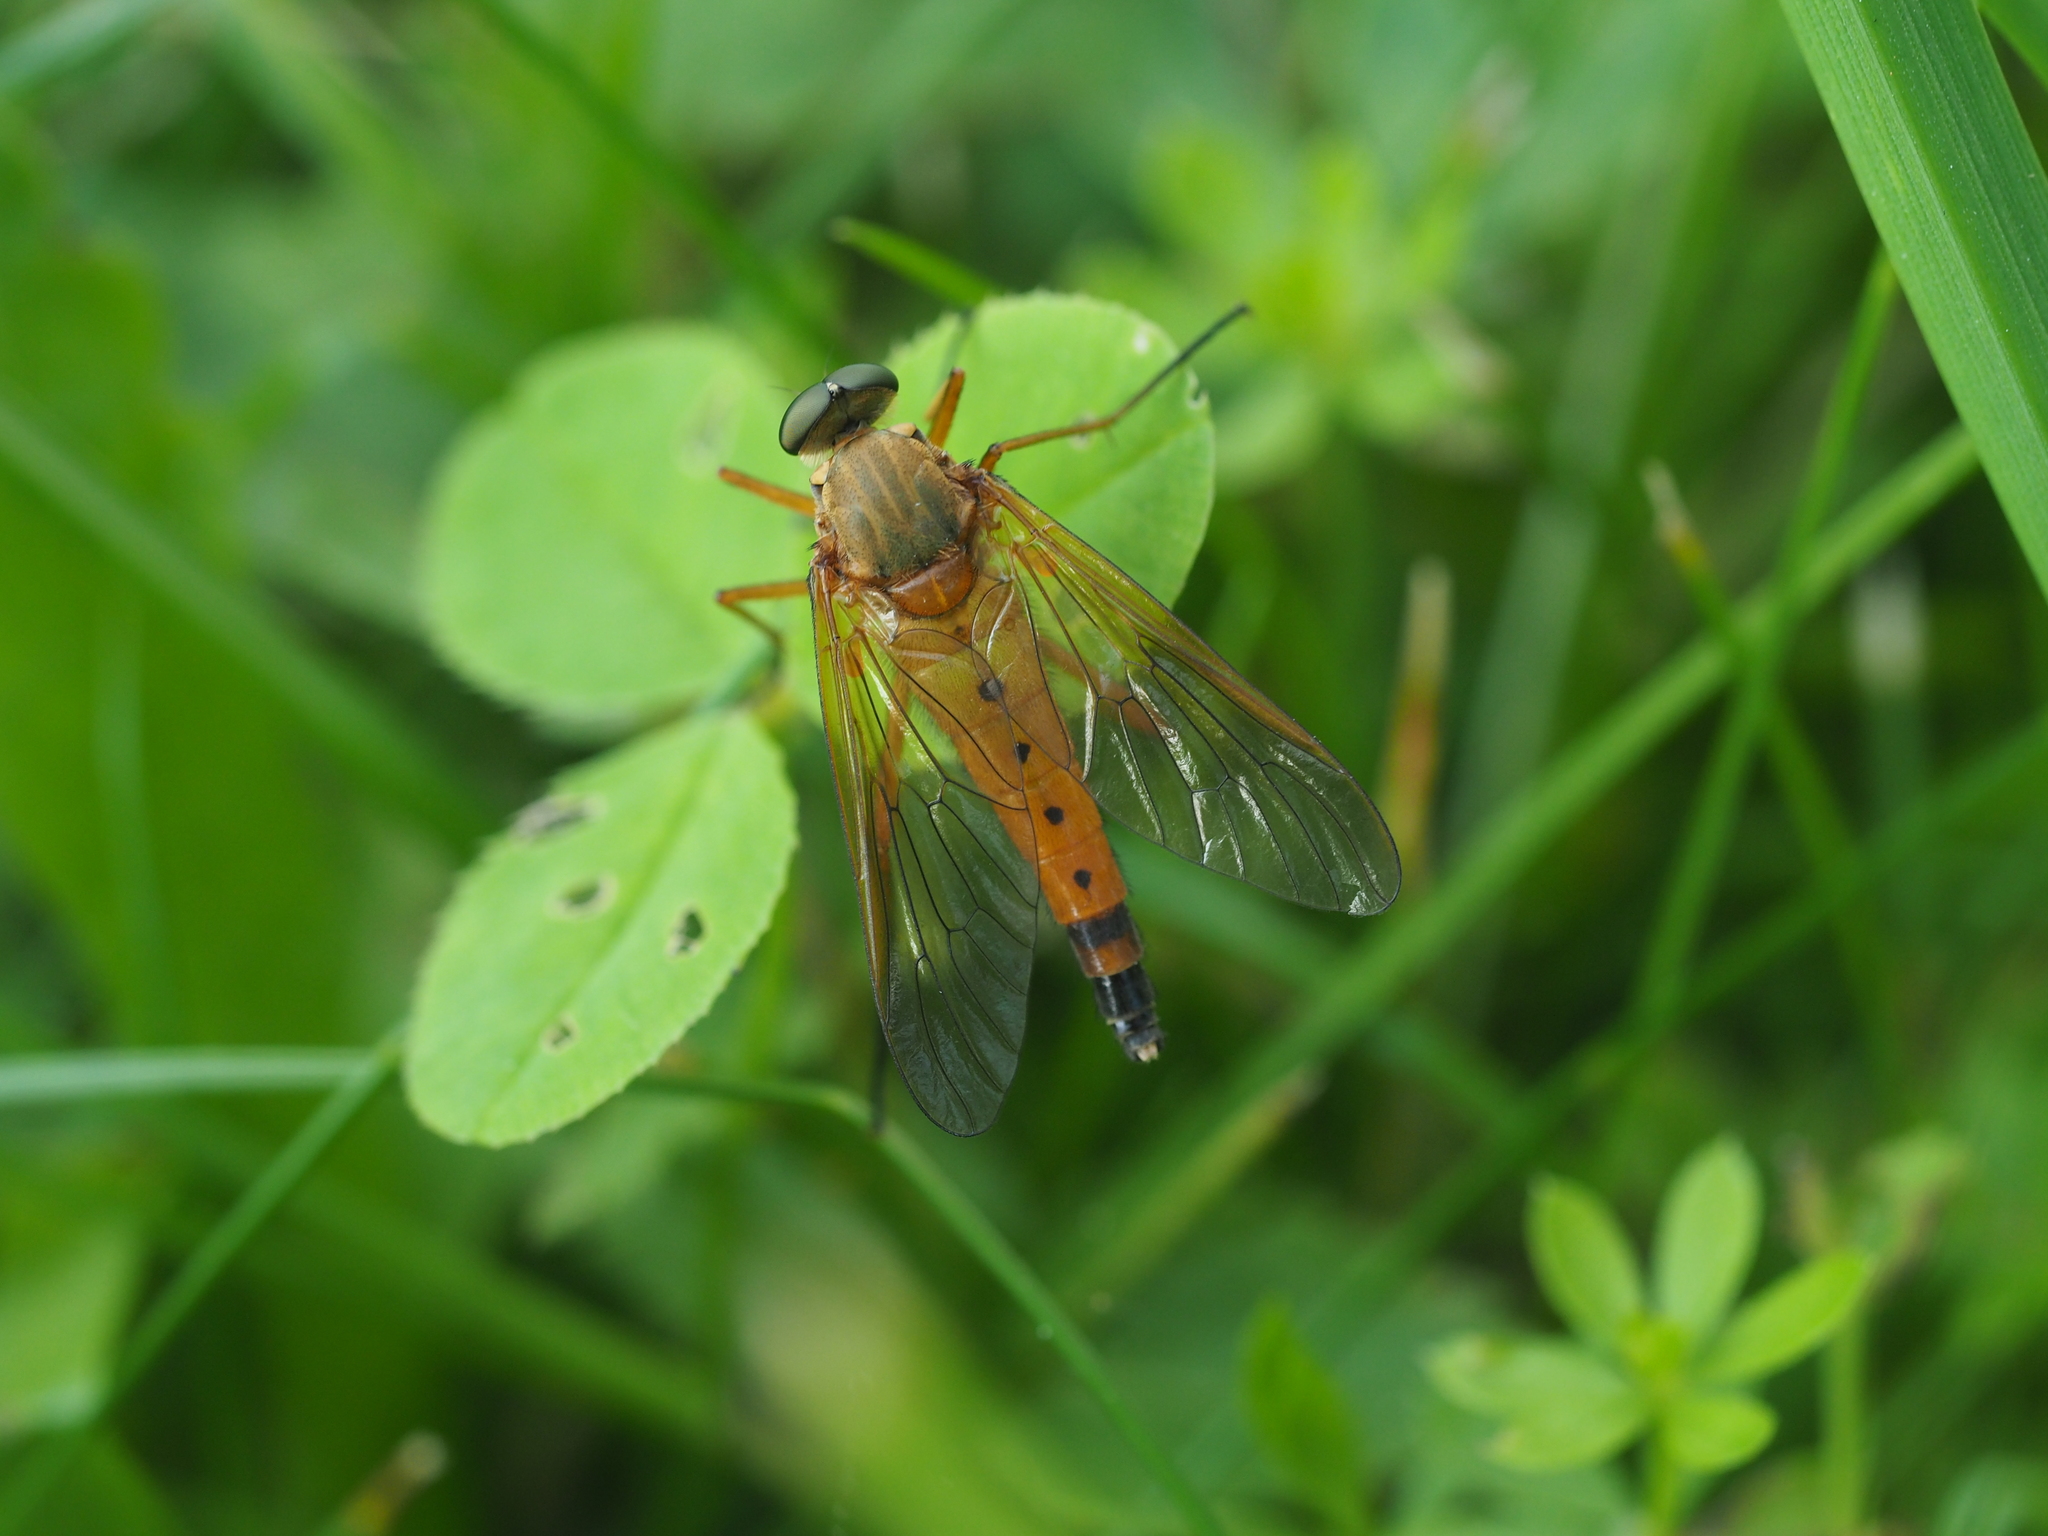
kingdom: Animalia
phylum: Arthropoda
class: Insecta
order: Diptera
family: Rhagionidae
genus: Rhagio
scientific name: Rhagio tringaria
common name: Marsh snipefly
